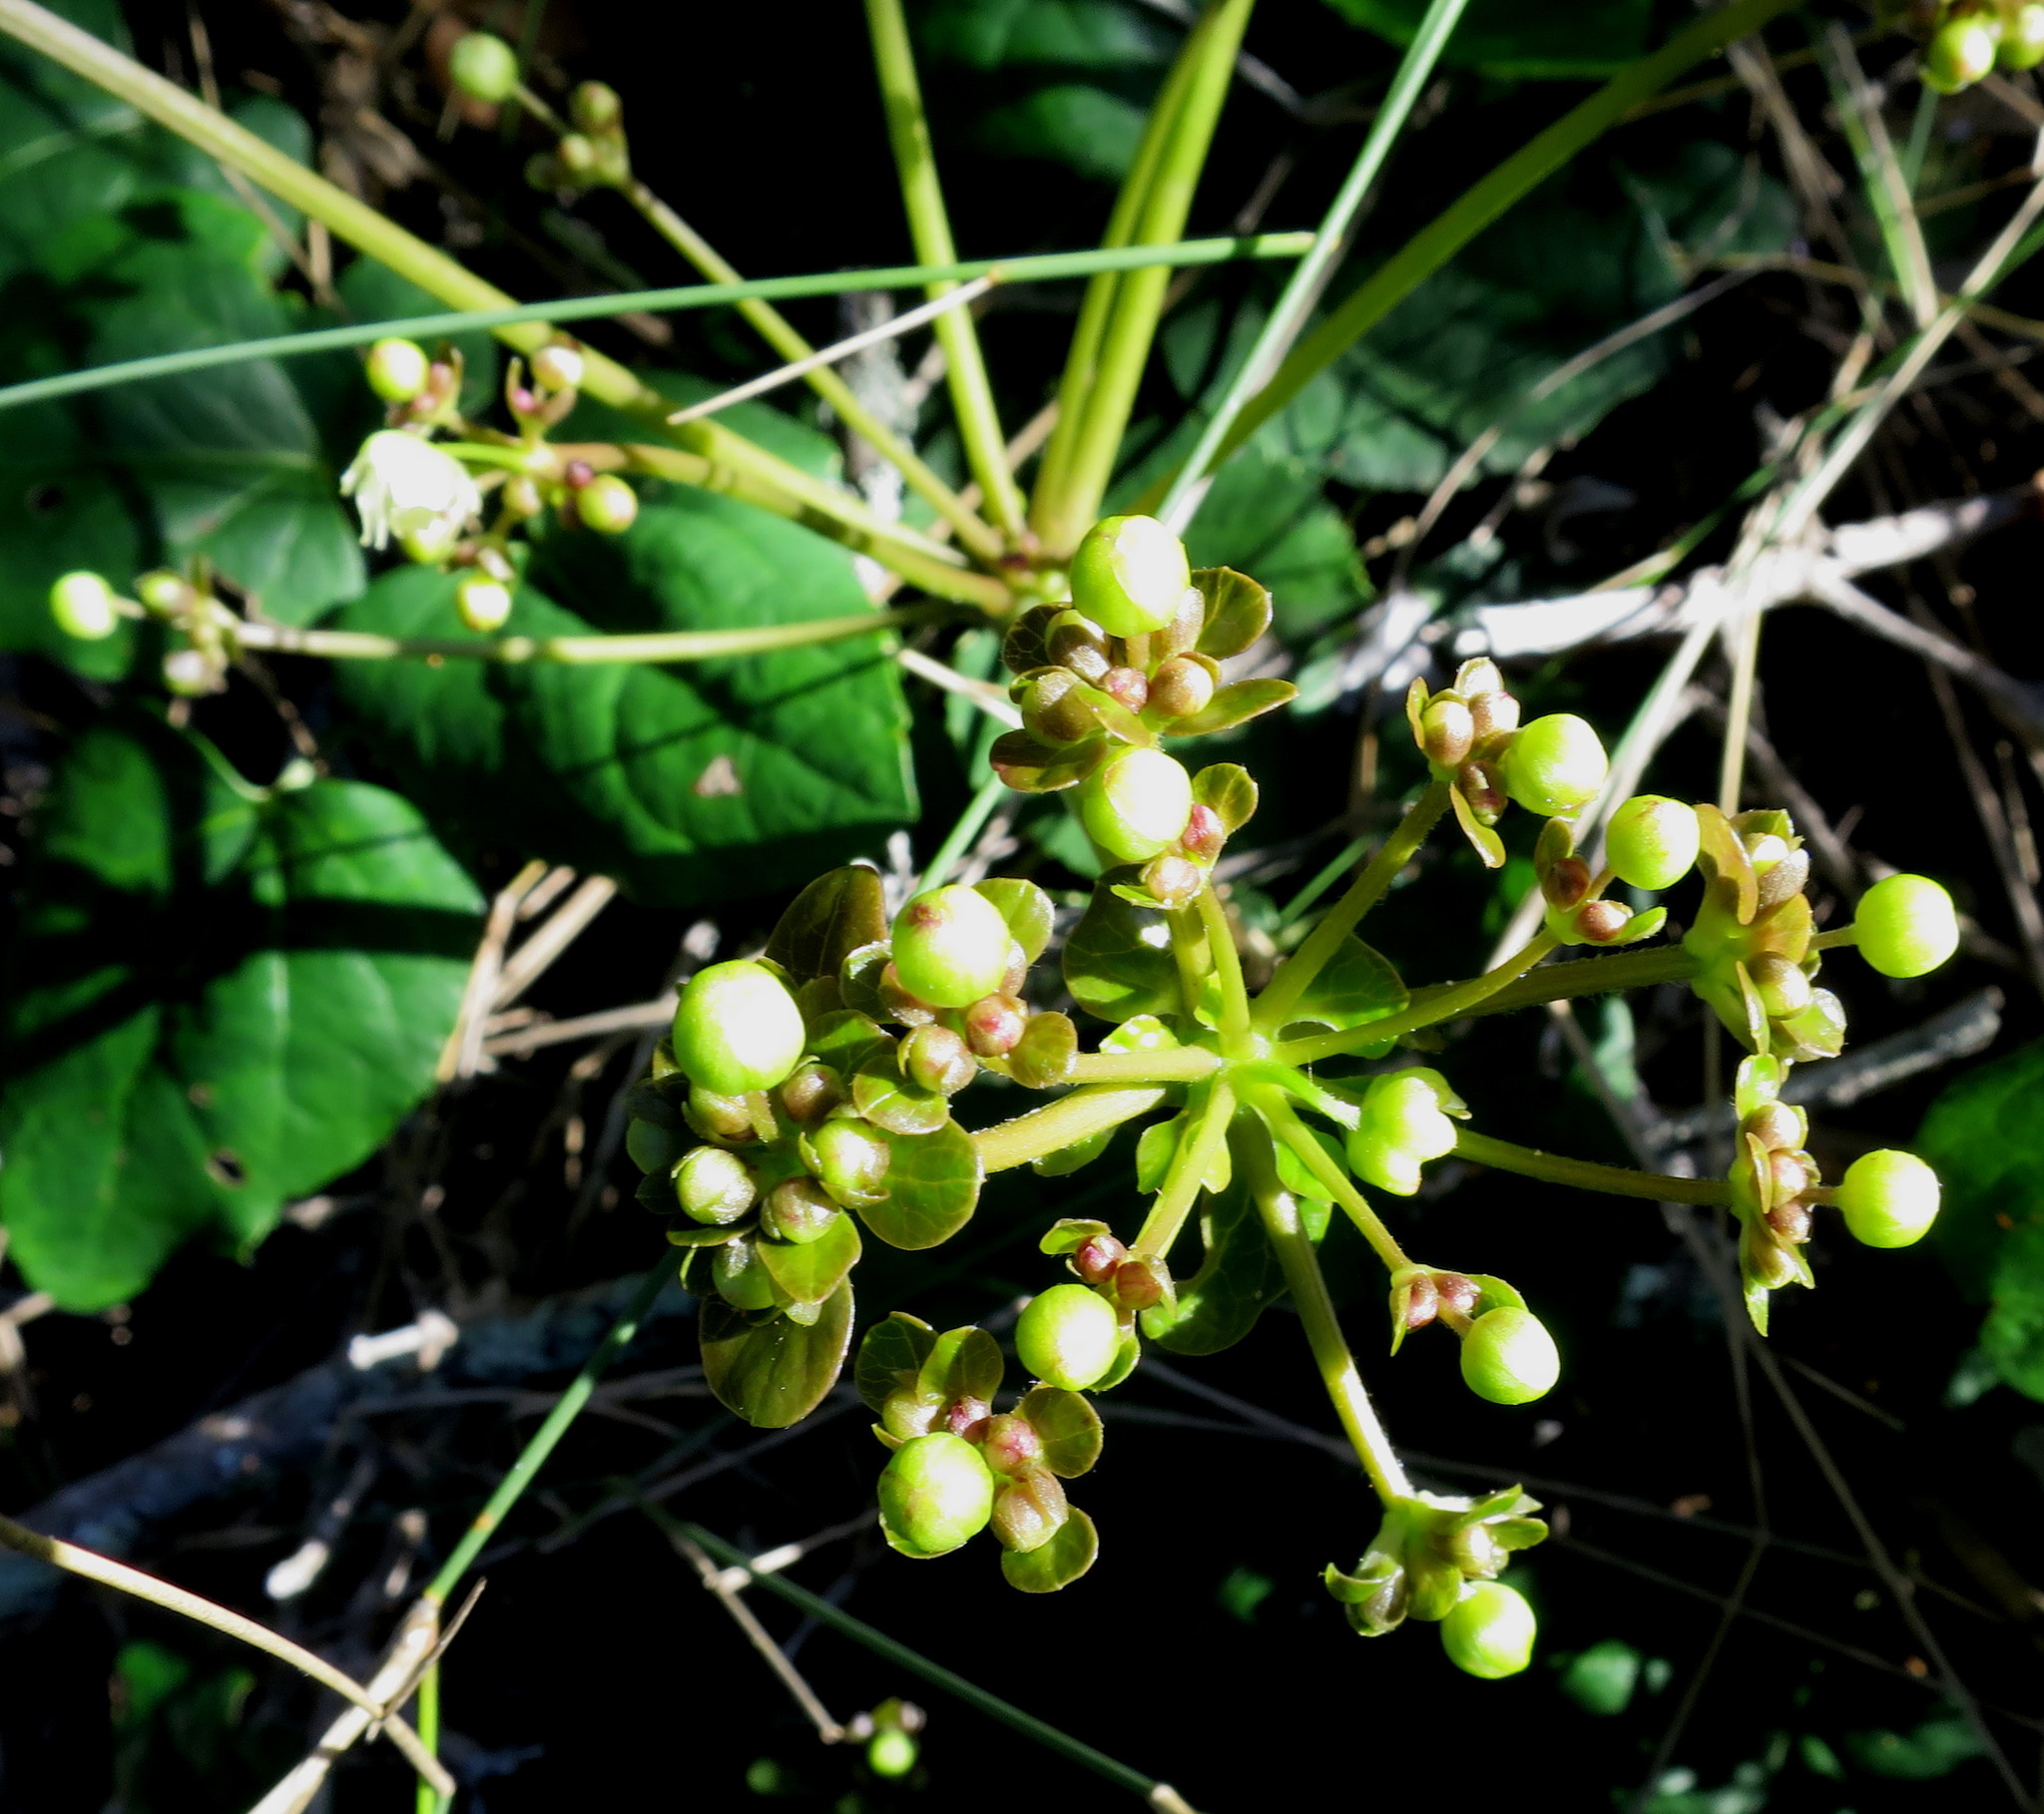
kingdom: Plantae
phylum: Tracheophyta
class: Magnoliopsida
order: Ranunculales
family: Ranunculaceae
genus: Knowltonia
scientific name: Knowltonia vesicatoria
